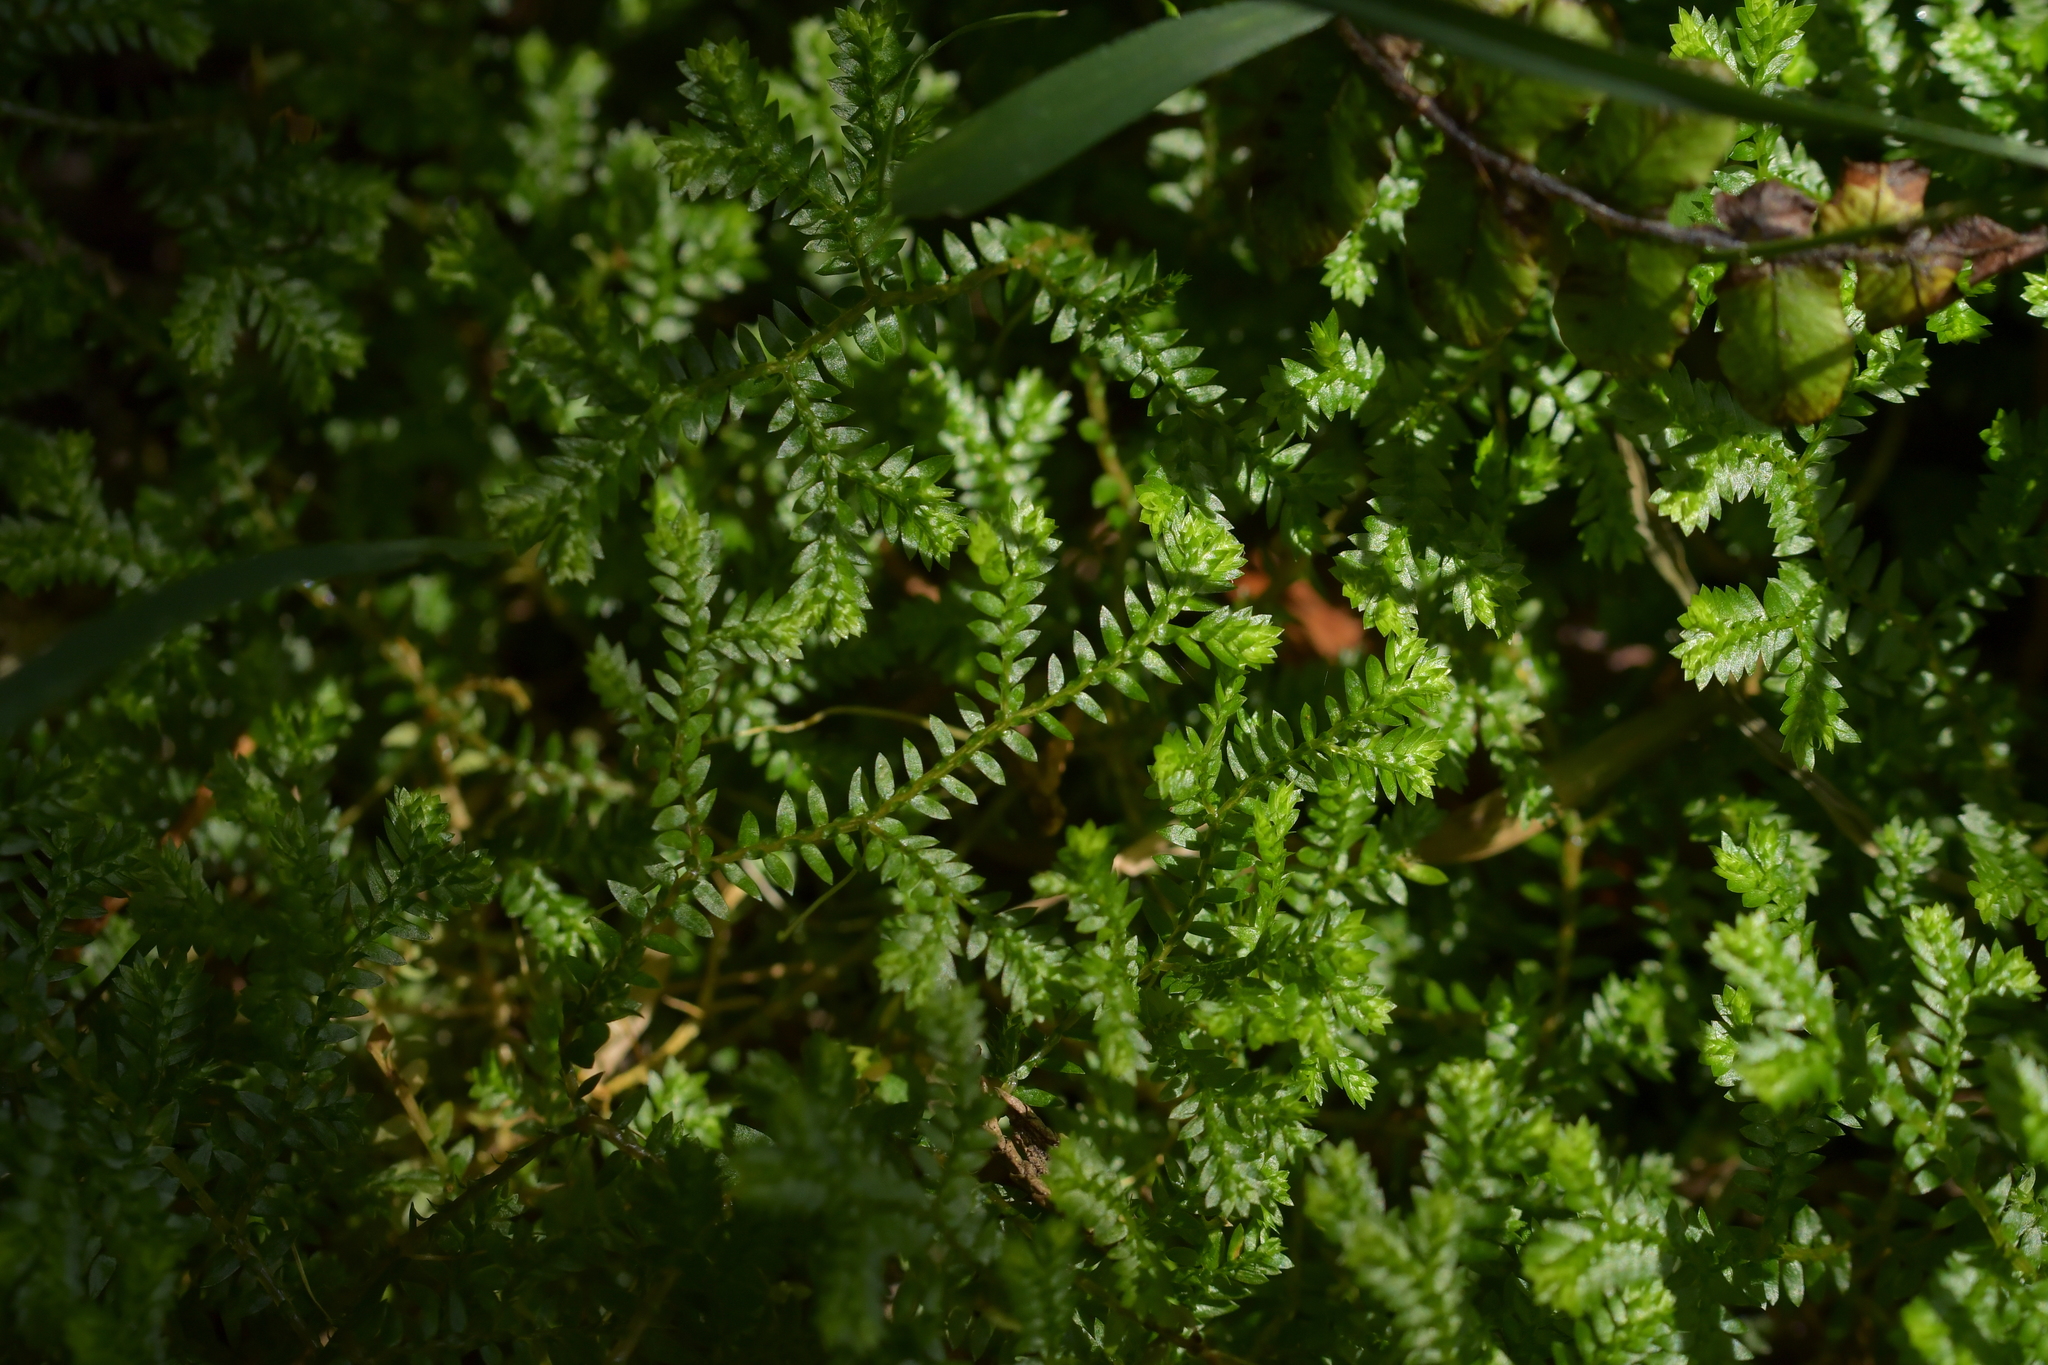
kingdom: Plantae
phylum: Tracheophyta
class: Lycopodiopsida
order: Selaginellales
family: Selaginellaceae
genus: Selaginella
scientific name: Selaginella kraussiana
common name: Krauss' spikemoss
